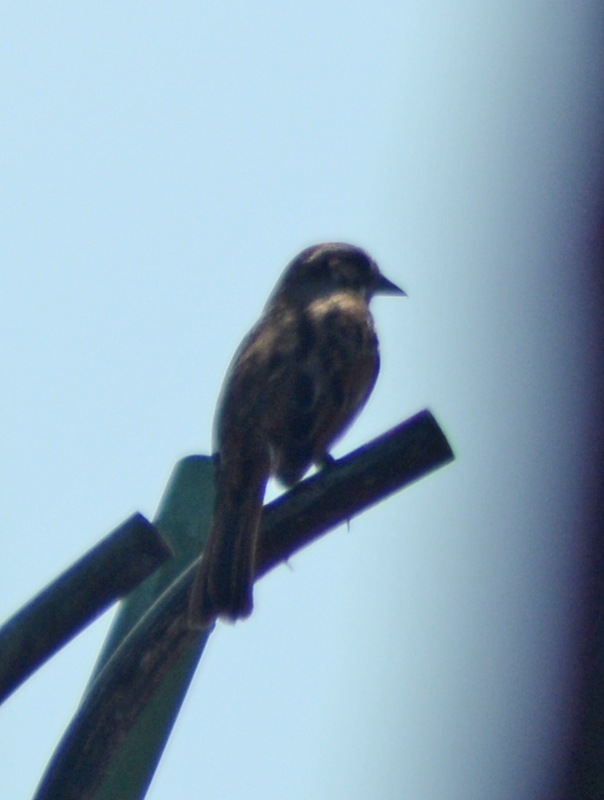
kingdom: Animalia
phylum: Chordata
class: Aves
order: Passeriformes
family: Passerellidae
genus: Melospiza
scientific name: Melospiza melodia
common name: Song sparrow
